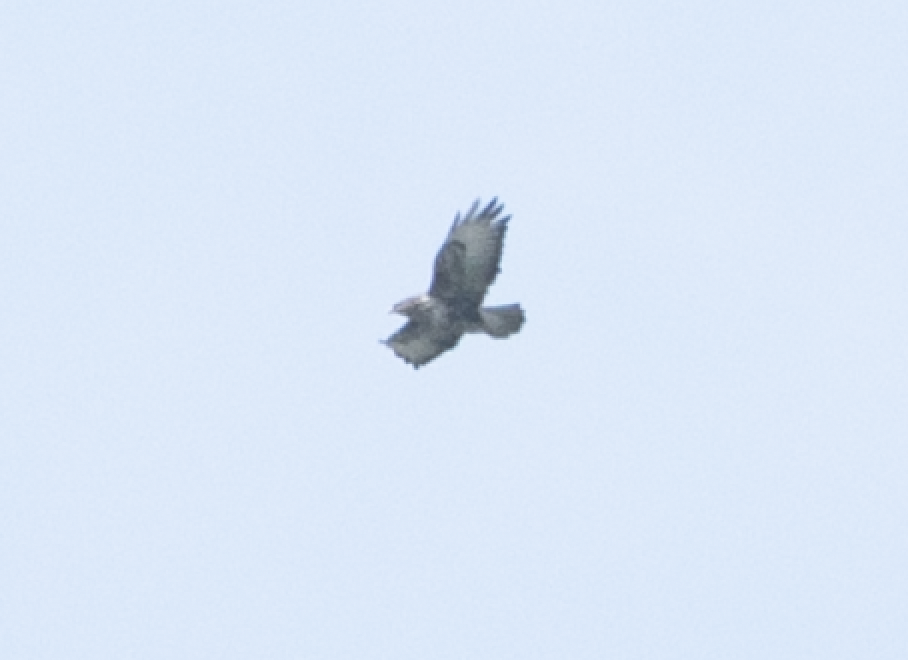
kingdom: Animalia
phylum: Chordata
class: Aves
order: Accipitriformes
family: Accipitridae
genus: Buteo
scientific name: Buteo buteo
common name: Common buzzard
